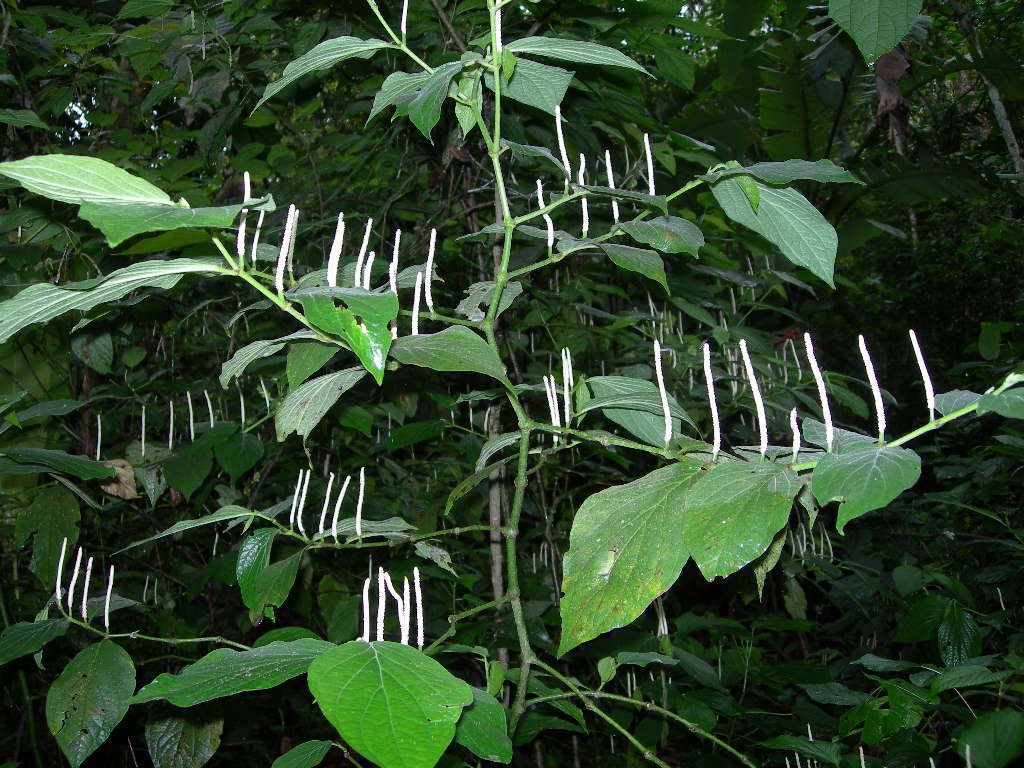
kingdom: Plantae
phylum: Tracheophyta
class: Magnoliopsida
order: Piperales
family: Piperaceae
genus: Piper
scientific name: Piper jacquemontianum
